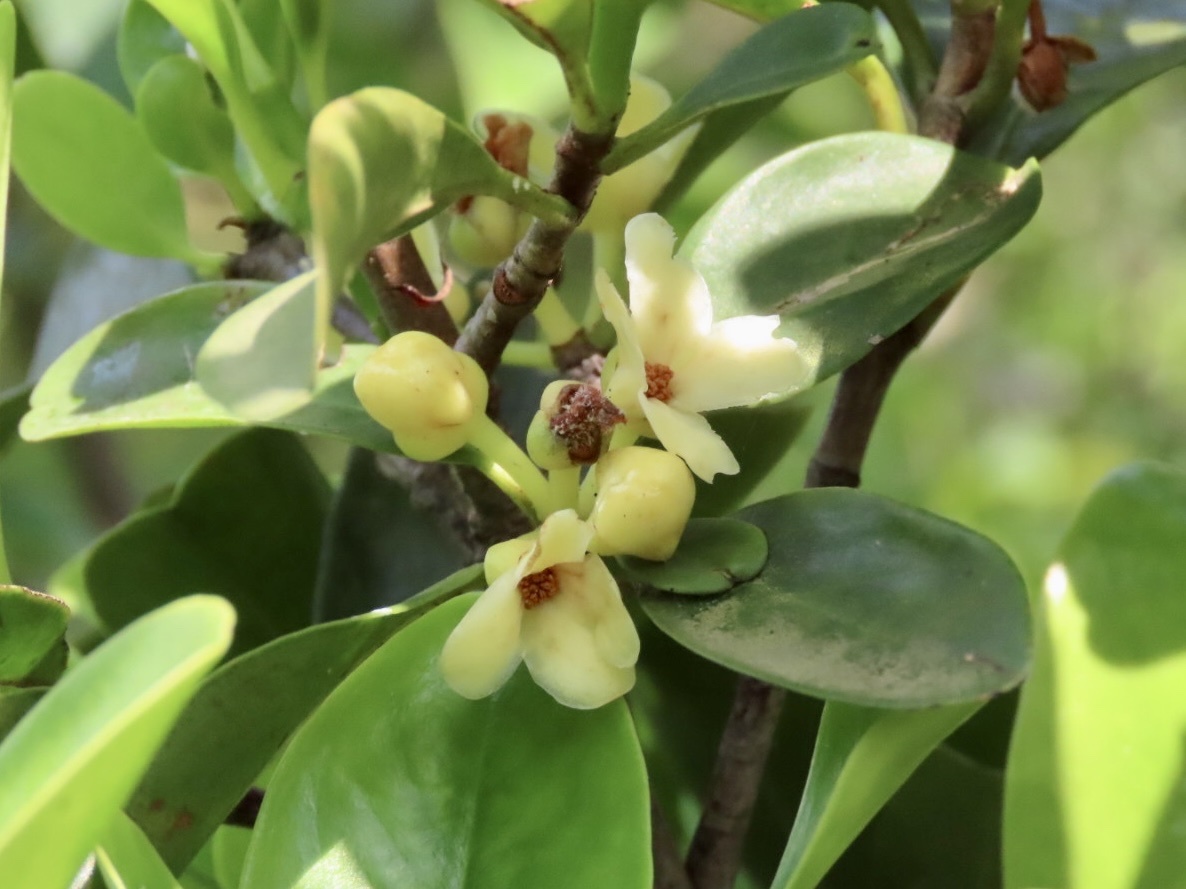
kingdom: Plantae
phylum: Tracheophyta
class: Magnoliopsida
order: Malpighiales
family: Clusiaceae
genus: Garcinia
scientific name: Garcinia oblongifolia
